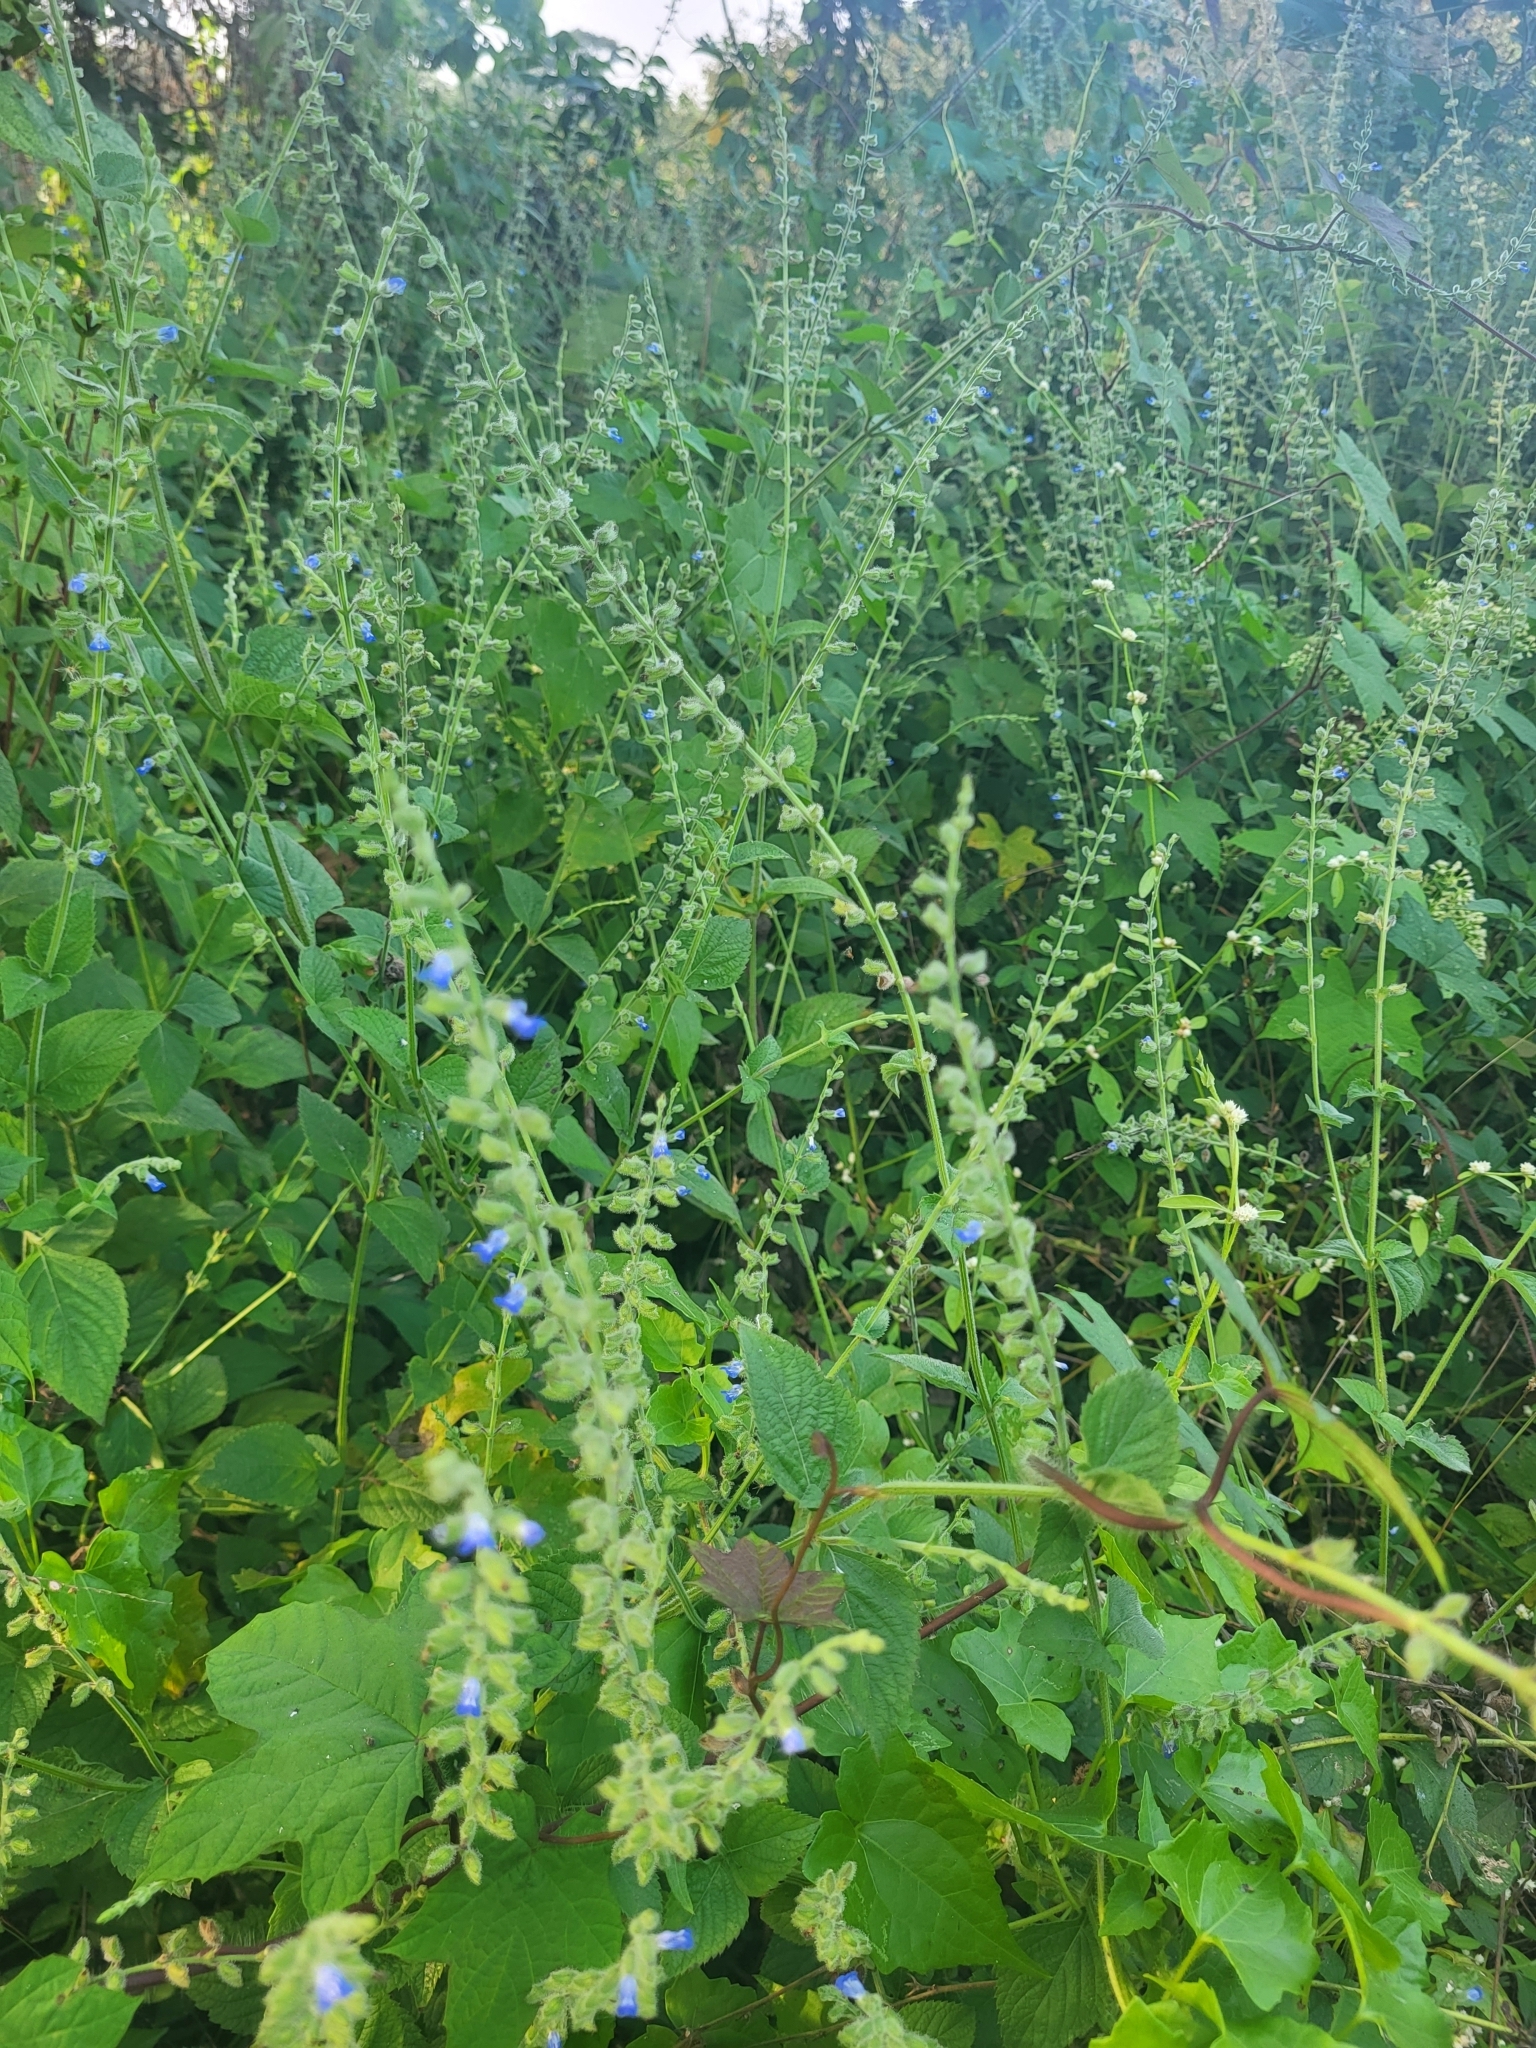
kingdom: Plantae
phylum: Tracheophyta
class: Magnoliopsida
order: Lamiales
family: Lamiaceae
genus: Salvia
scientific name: Salvia misella
